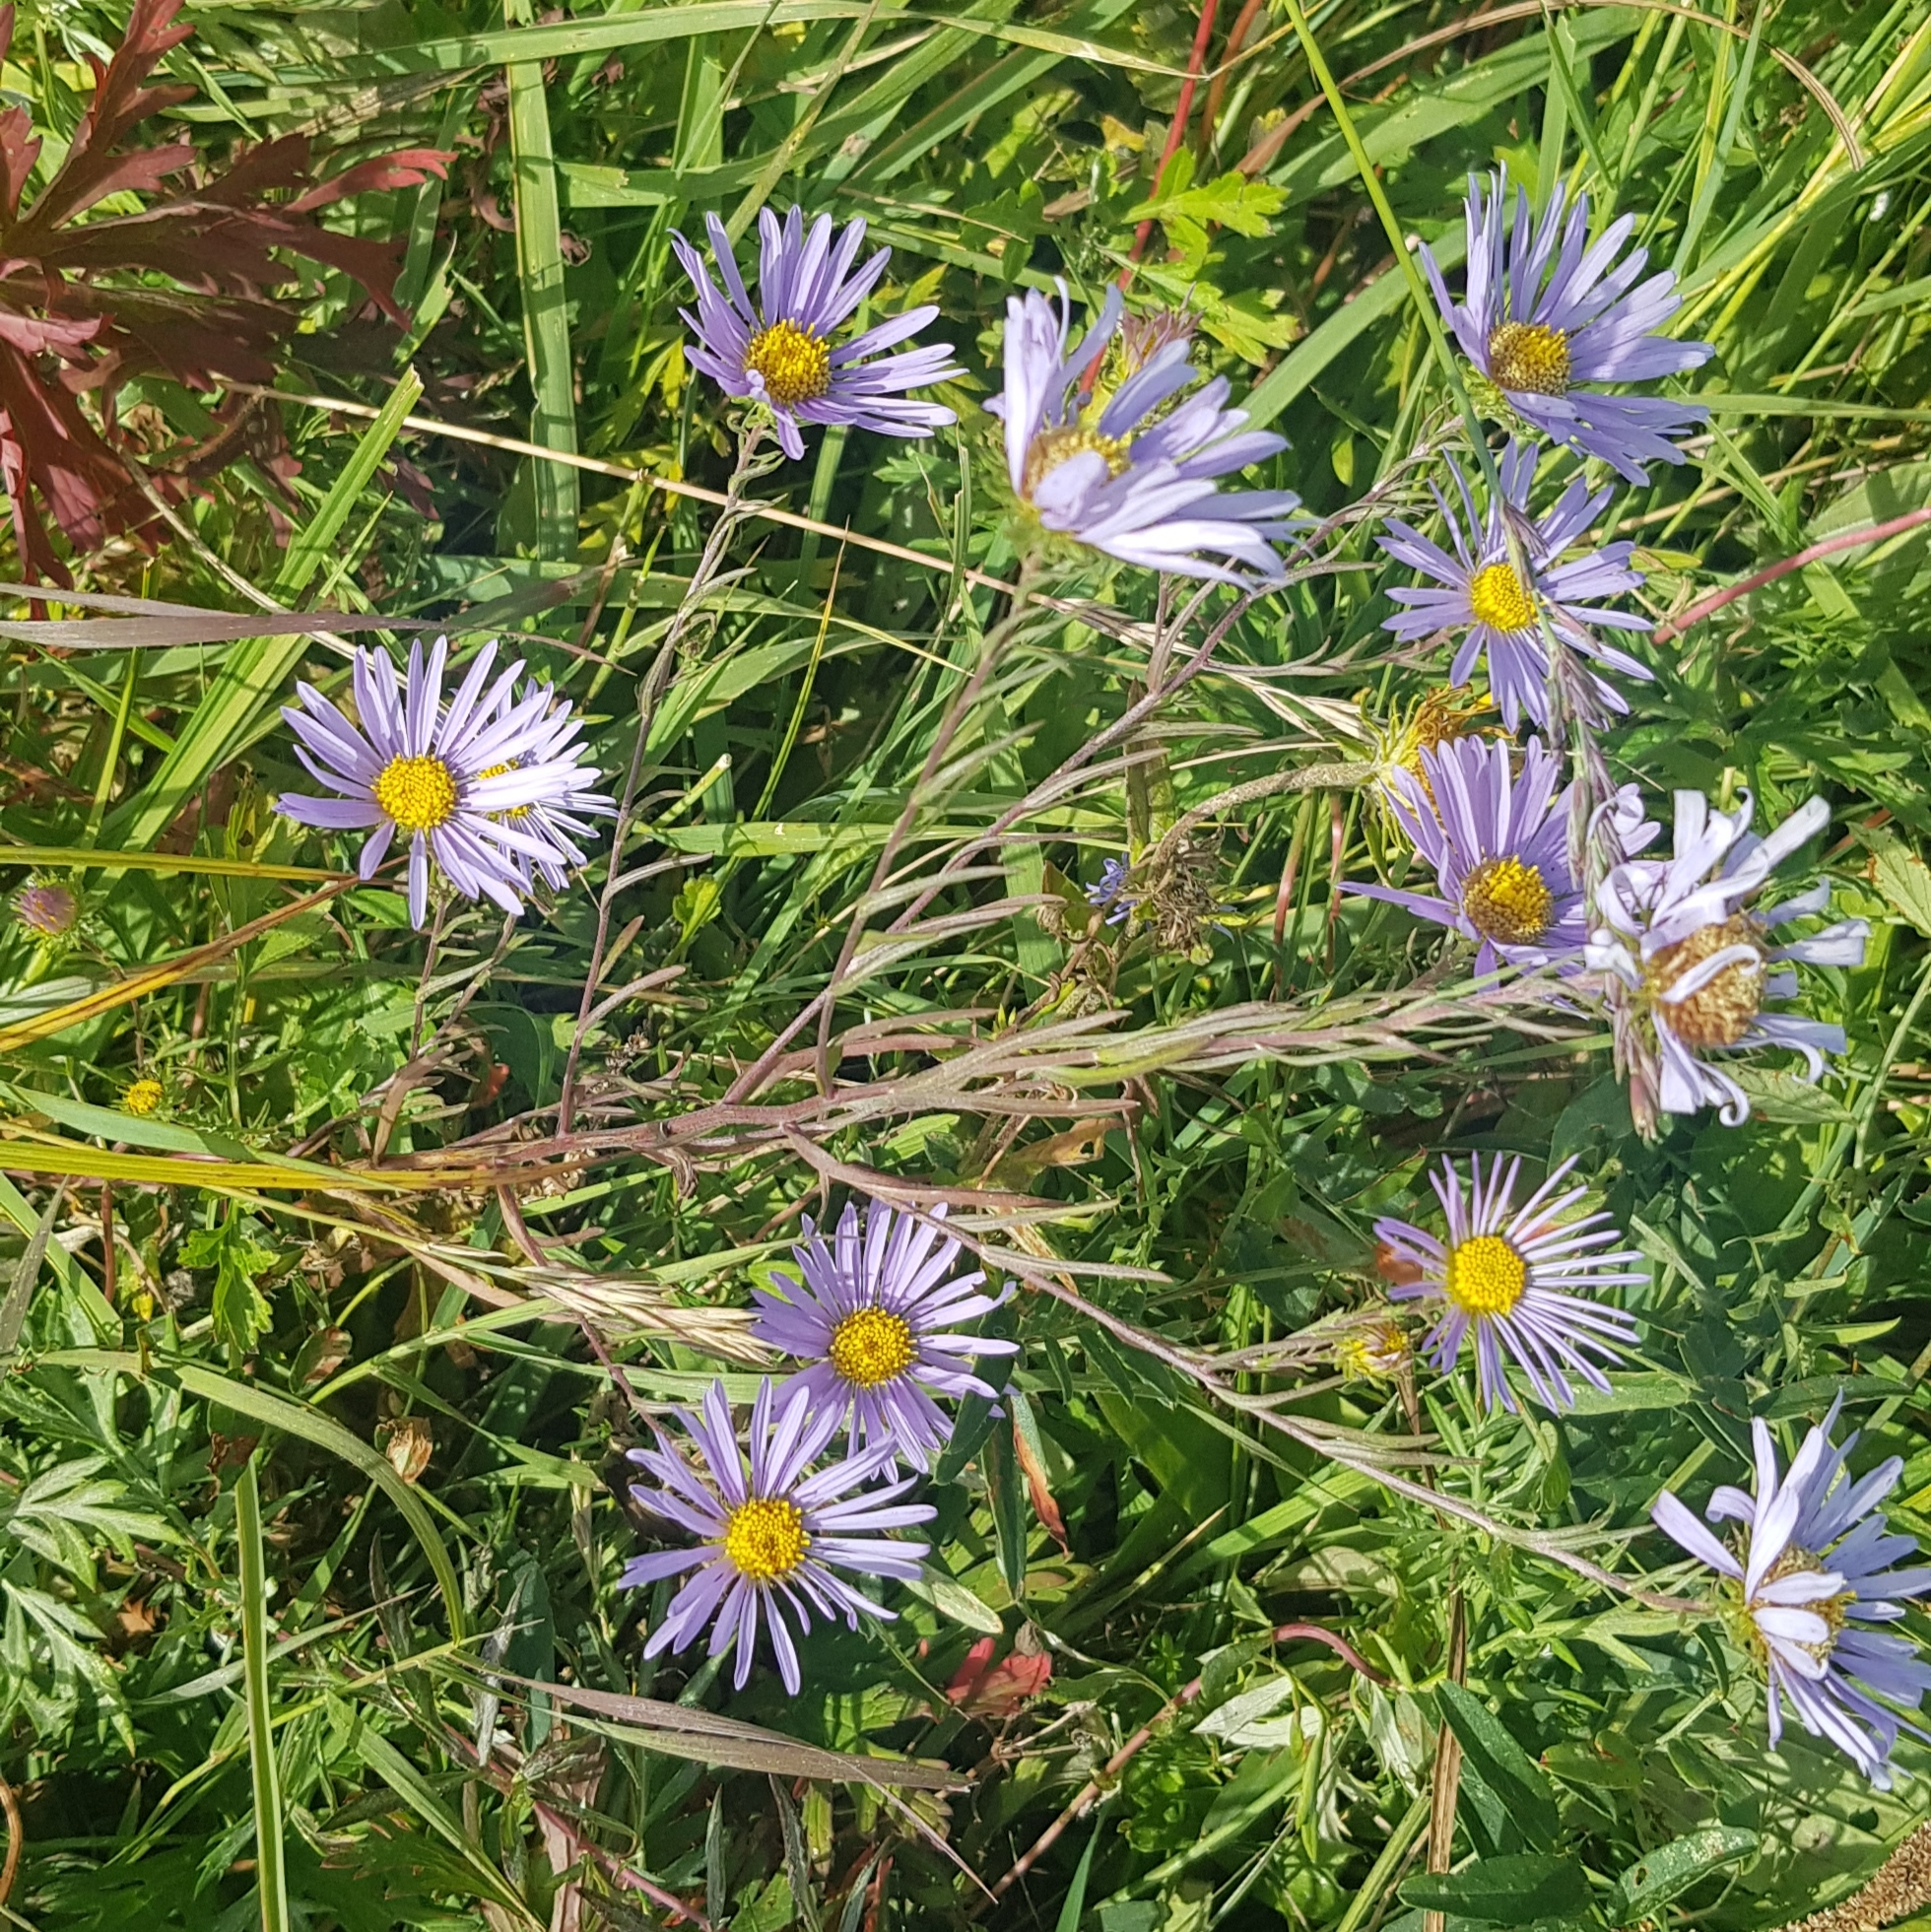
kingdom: Plantae
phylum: Tracheophyta
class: Magnoliopsida
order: Asterales
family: Asteraceae
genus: Aster
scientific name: Aster biennis
